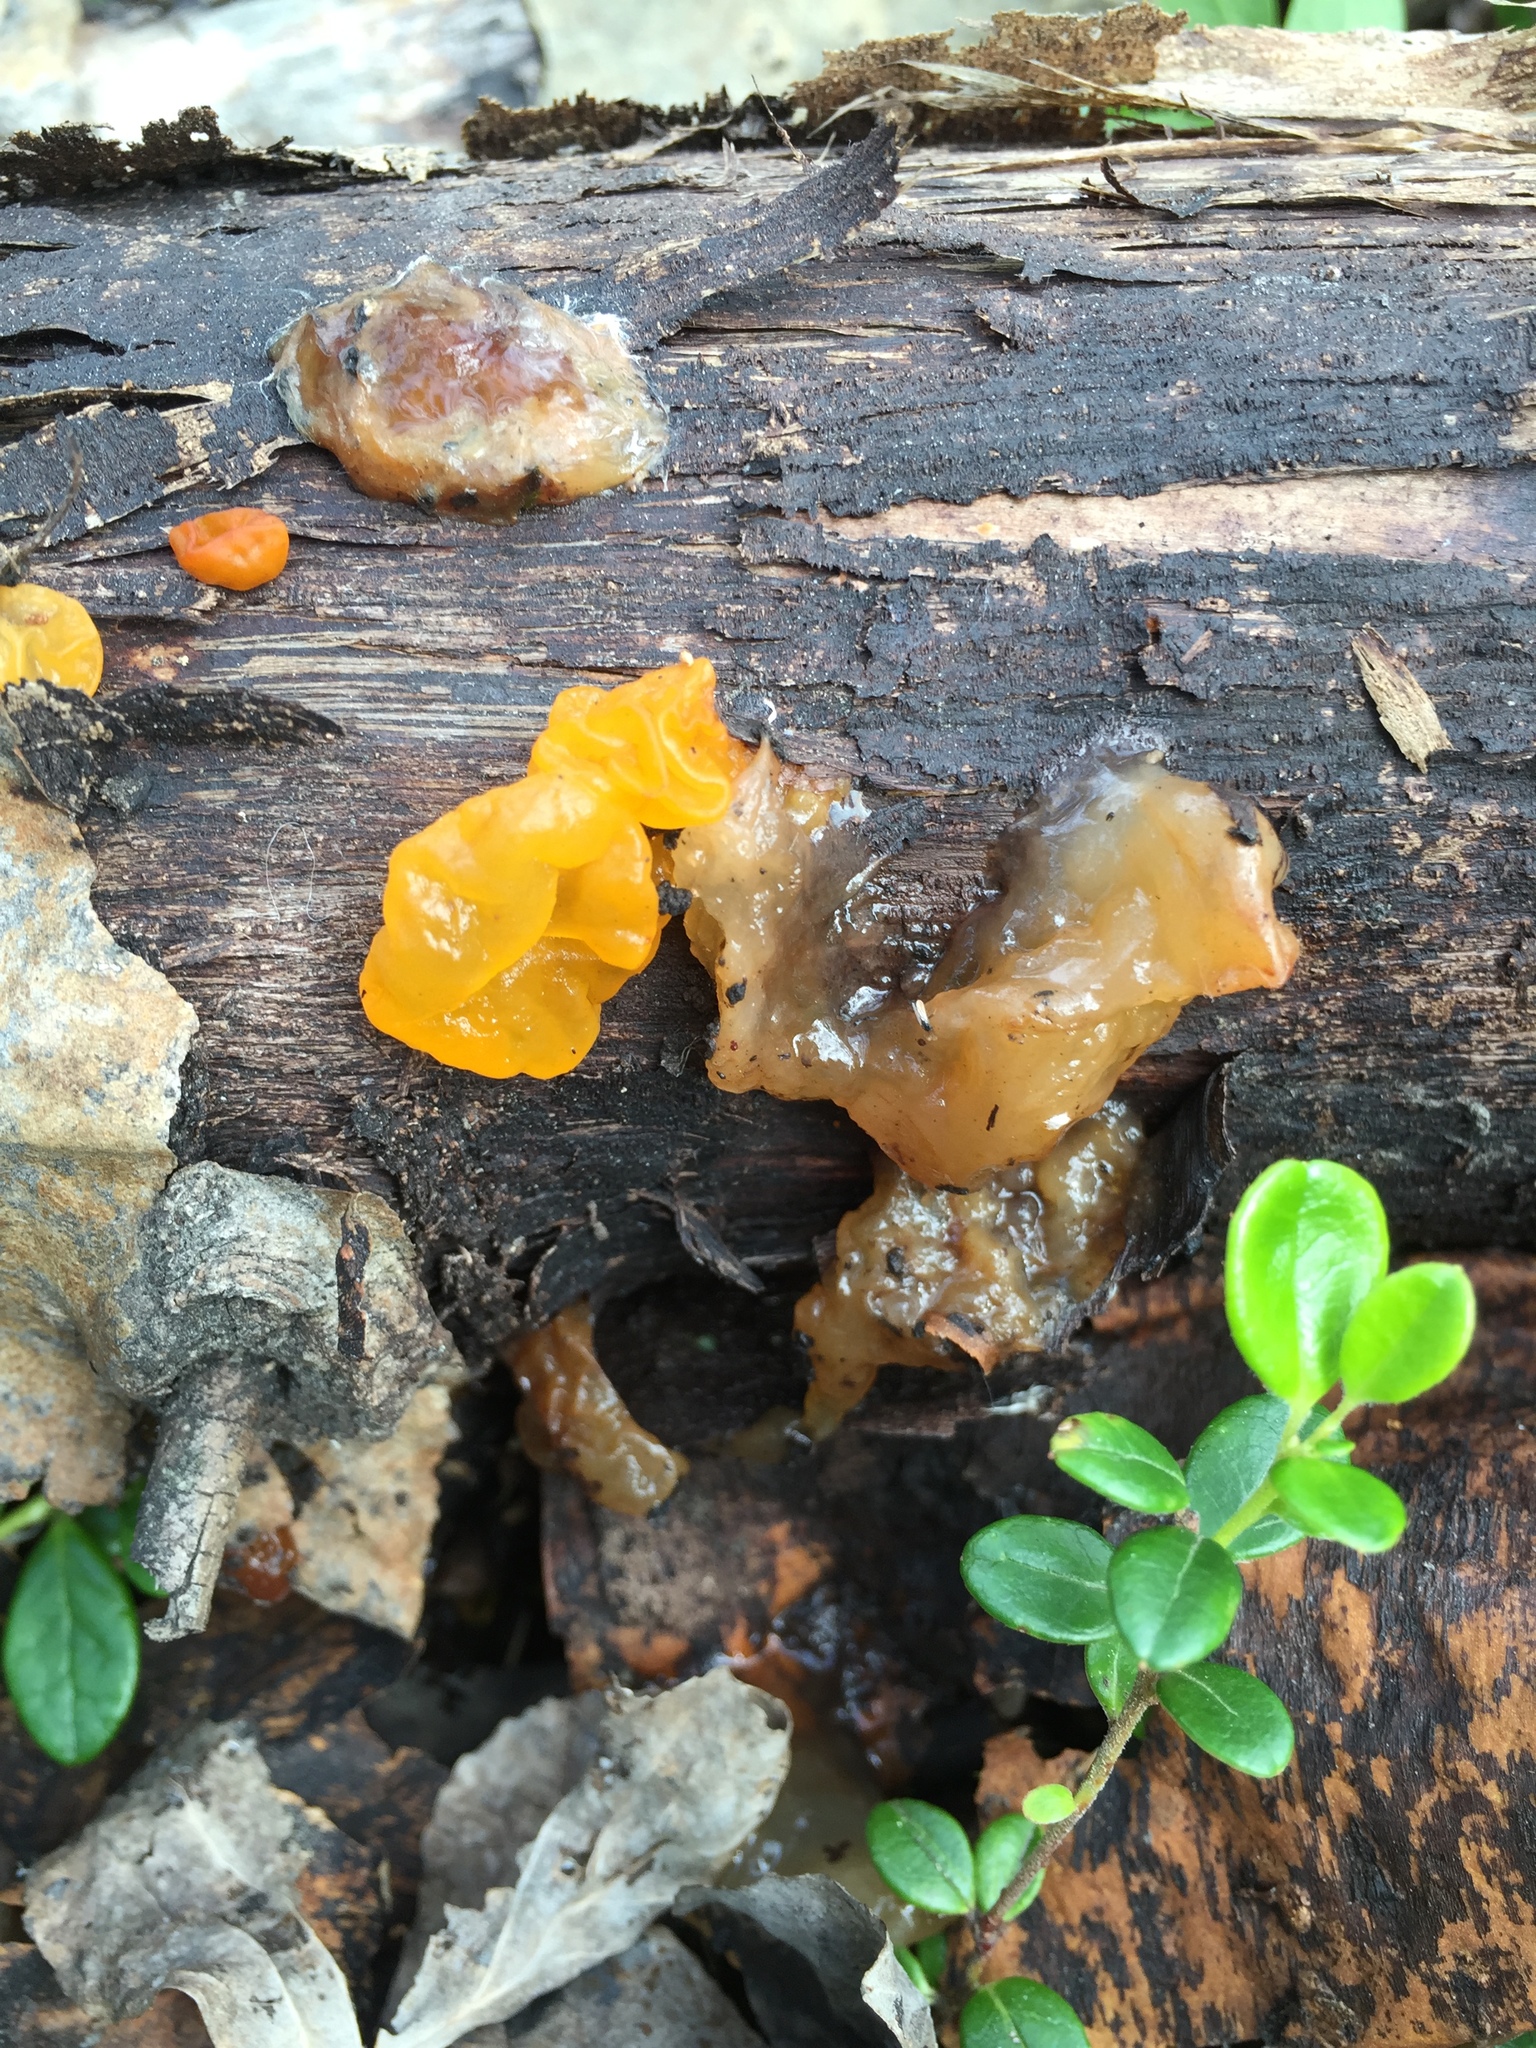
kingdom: Fungi
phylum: Basidiomycota
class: Tremellomycetes
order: Tremellales
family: Tremellaceae
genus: Tremella
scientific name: Tremella mesenterica
